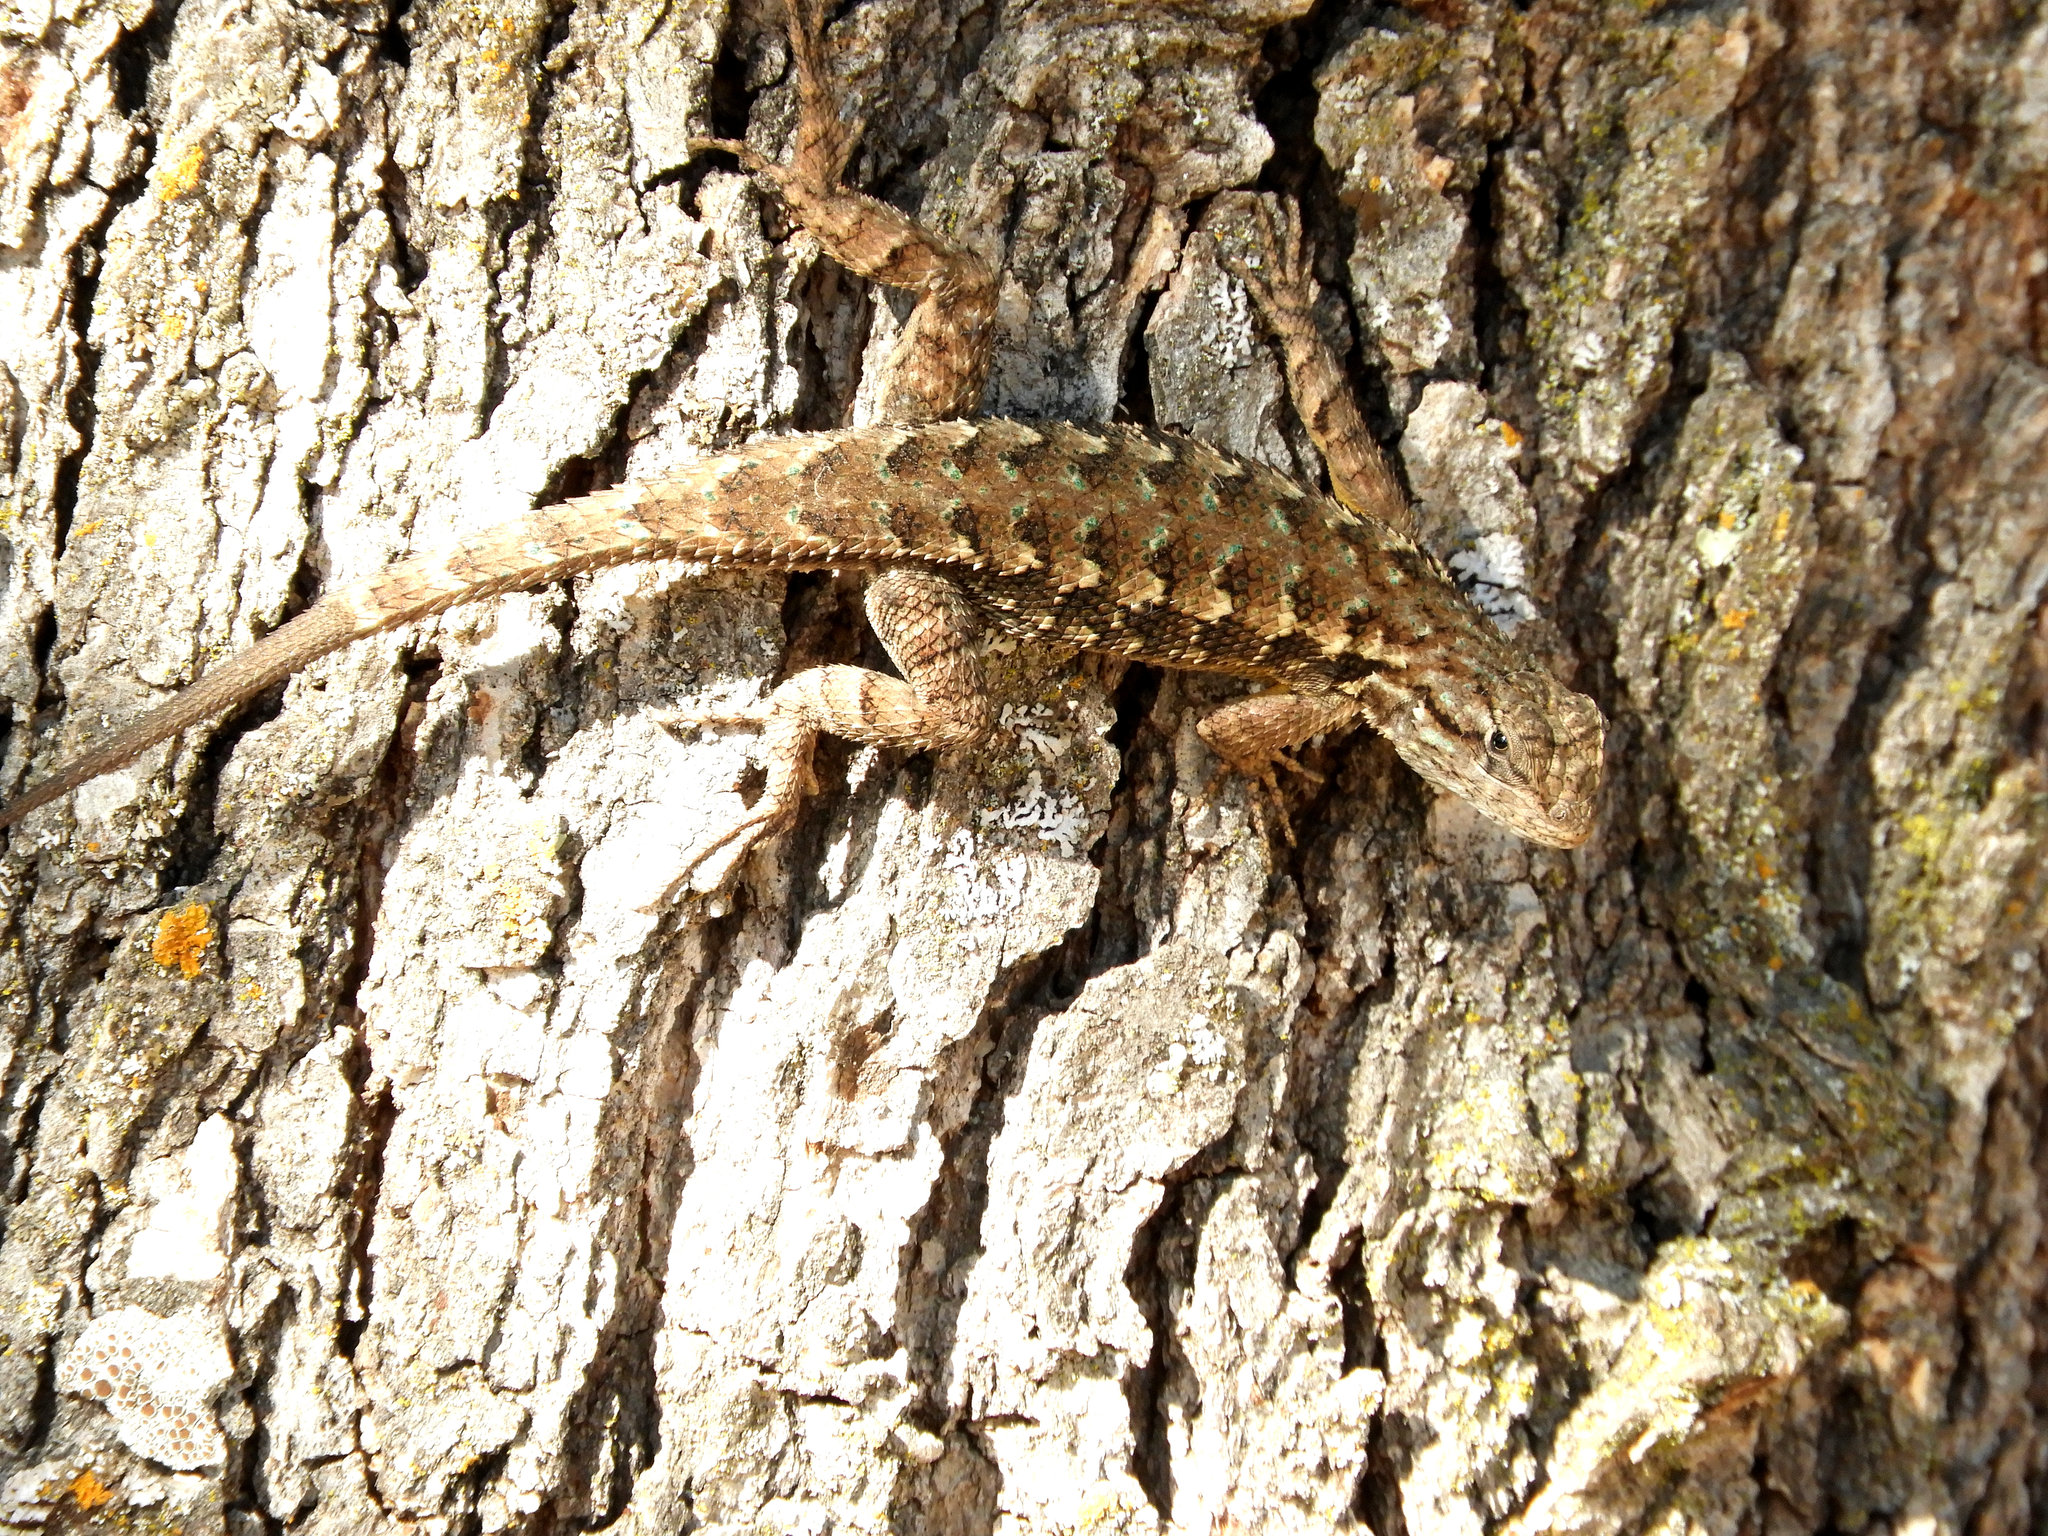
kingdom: Animalia
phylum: Chordata
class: Squamata
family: Phrynosomatidae
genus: Sceloporus
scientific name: Sceloporus occidentalis
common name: Western fence lizard
